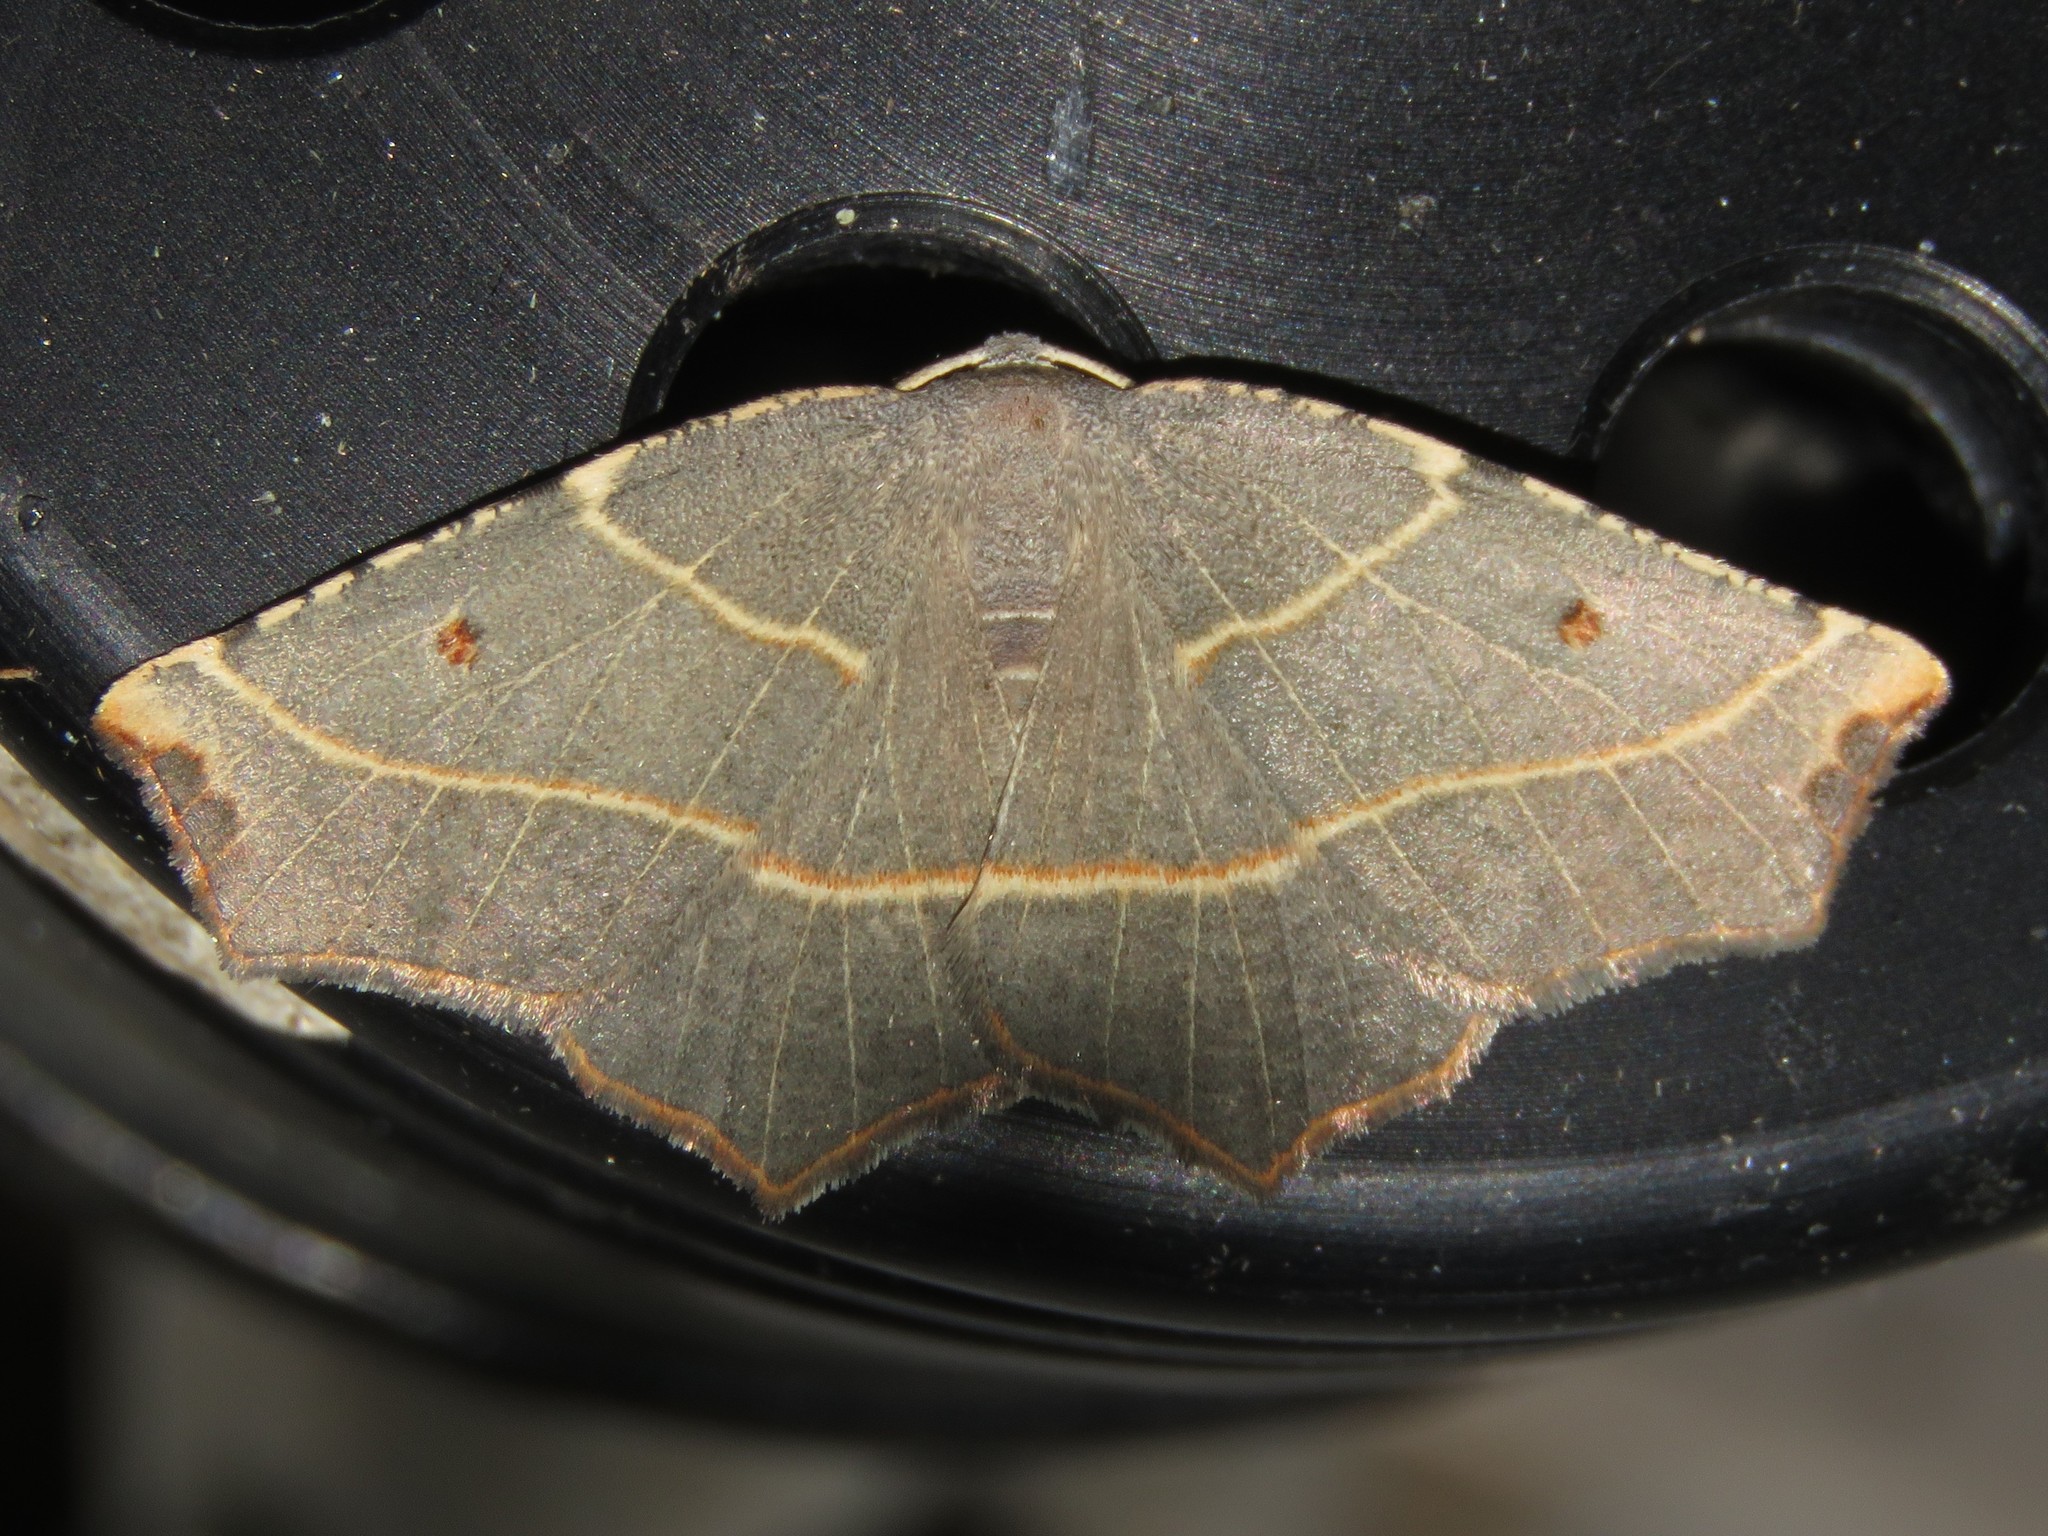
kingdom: Animalia
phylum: Arthropoda
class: Insecta
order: Lepidoptera
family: Geometridae
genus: Metanema
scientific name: Metanema inatomaria
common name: Pale metanema
